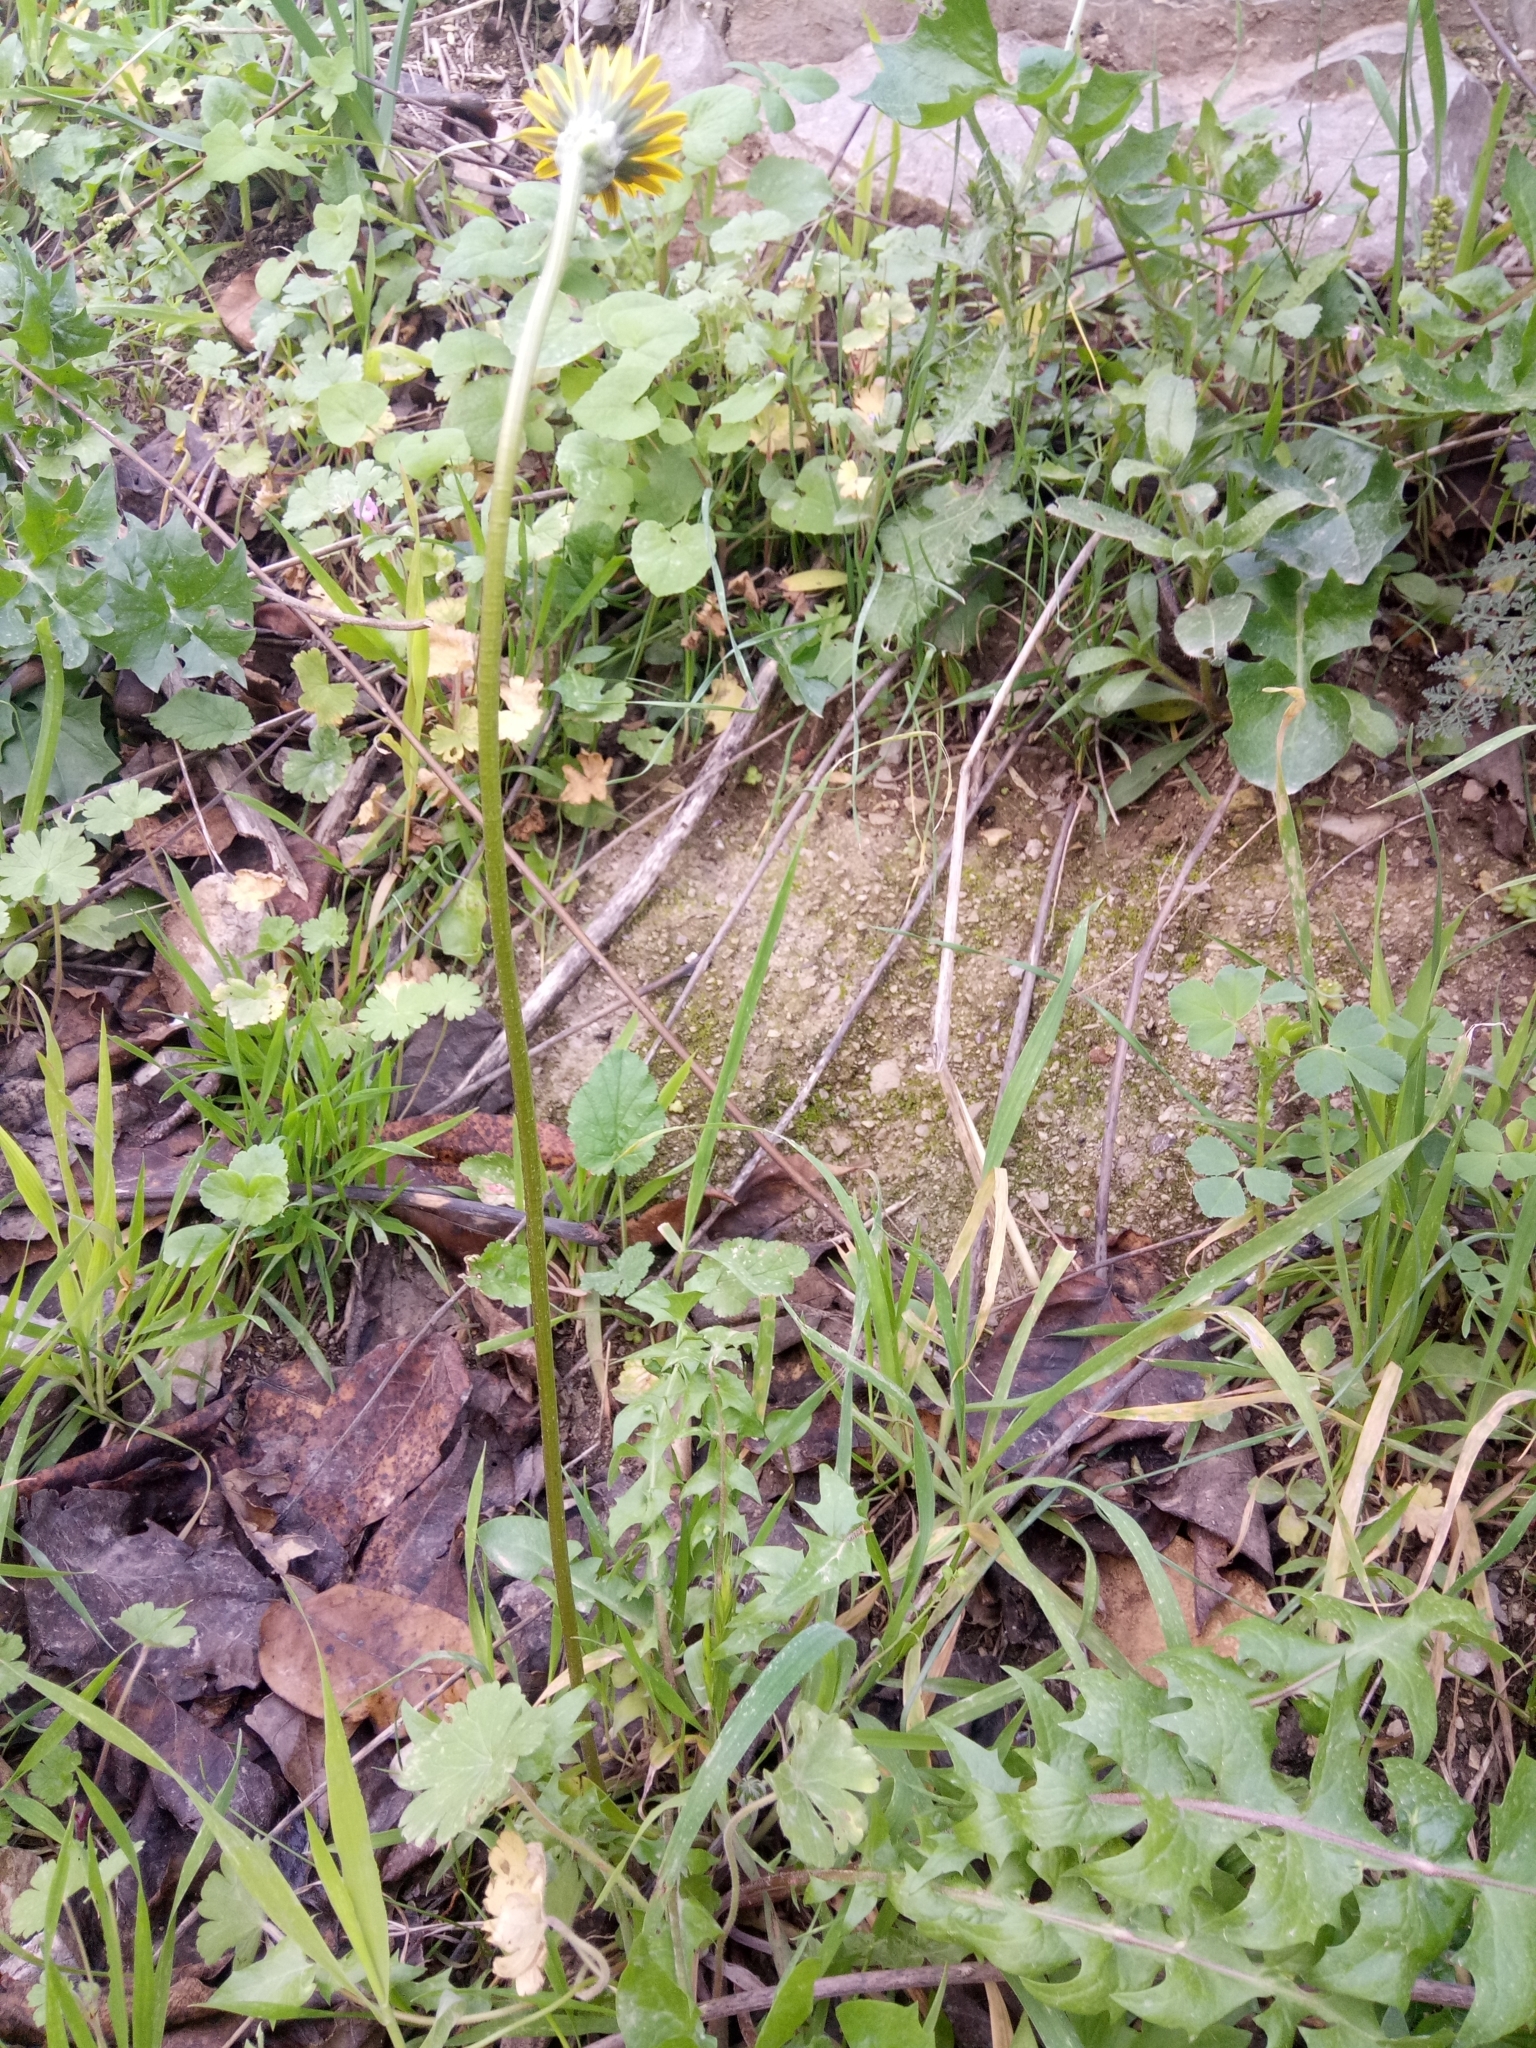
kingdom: Plantae
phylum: Tracheophyta
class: Magnoliopsida
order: Asterales
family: Asteraceae
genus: Hyoseris
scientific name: Hyoseris radiata
